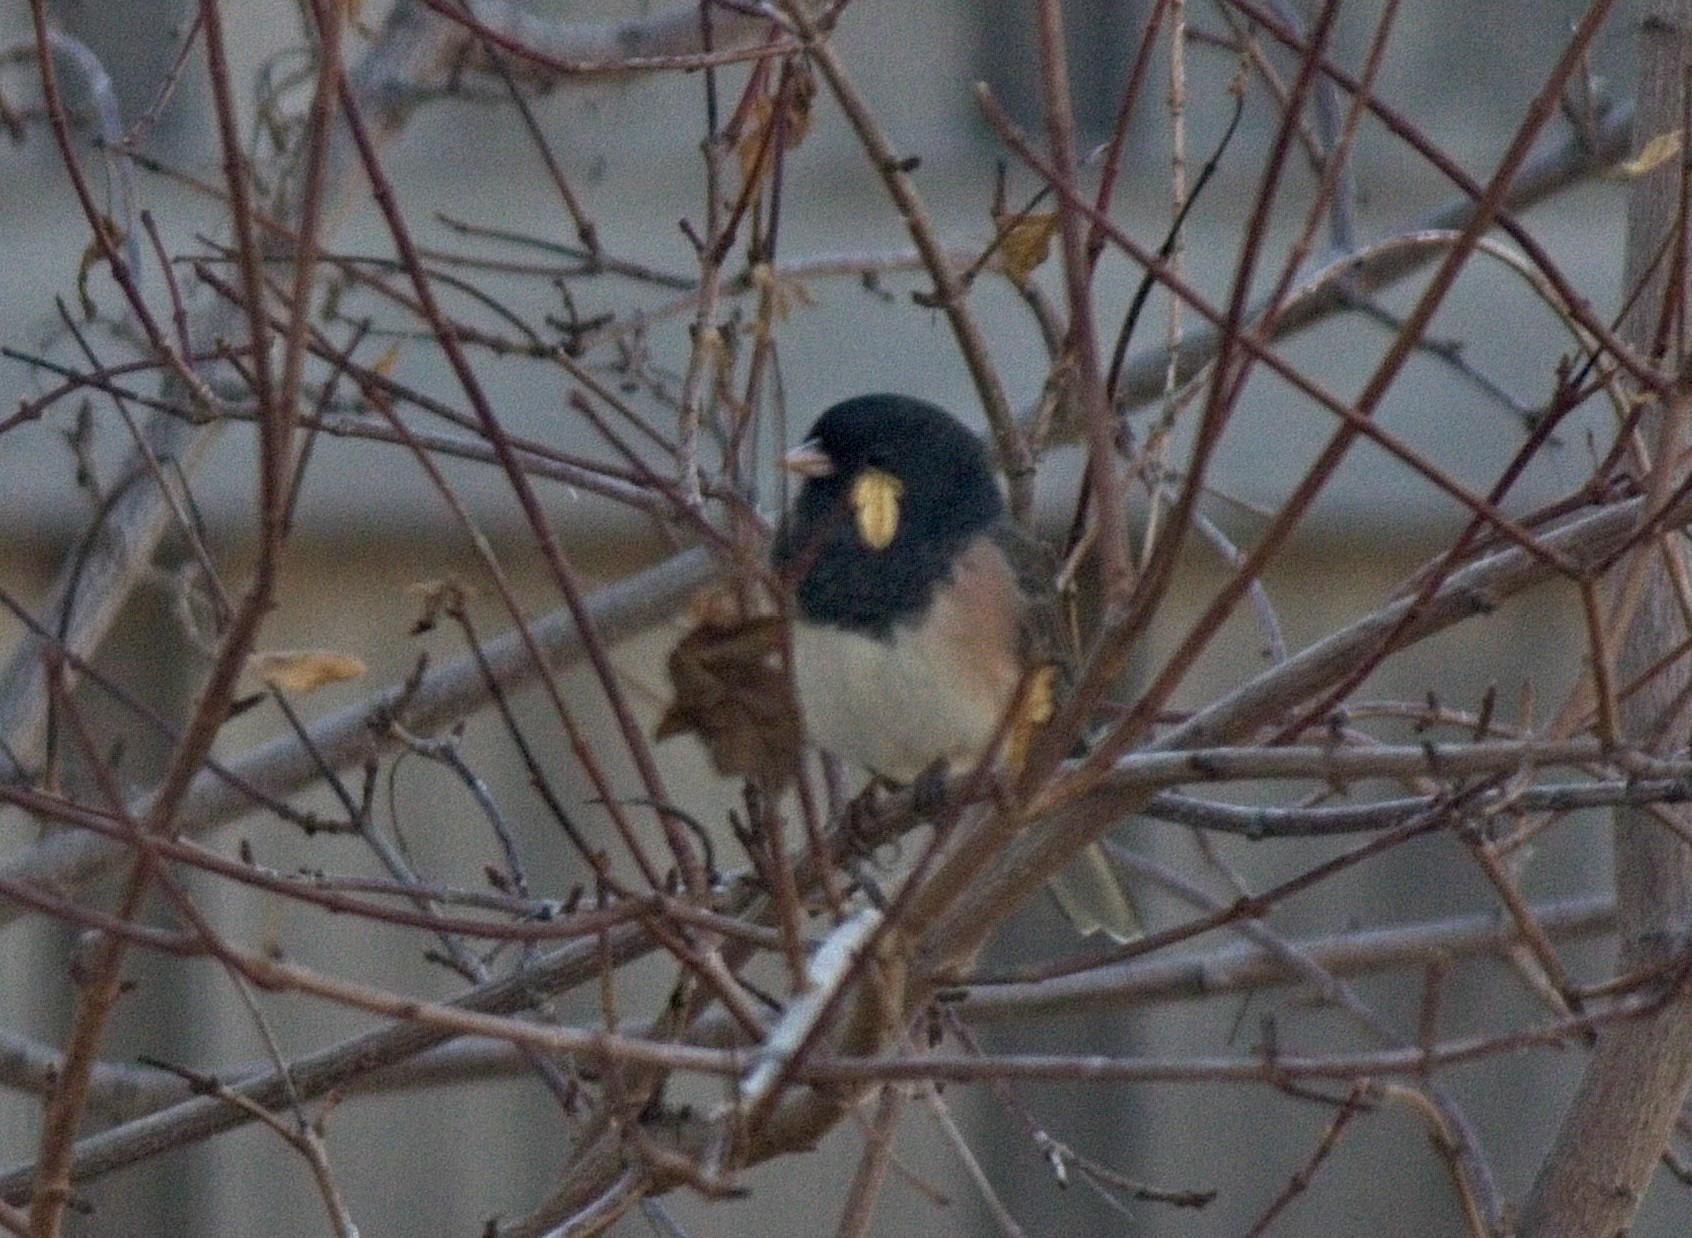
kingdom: Animalia
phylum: Chordata
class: Aves
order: Passeriformes
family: Passerellidae
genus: Junco
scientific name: Junco hyemalis
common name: Dark-eyed junco
